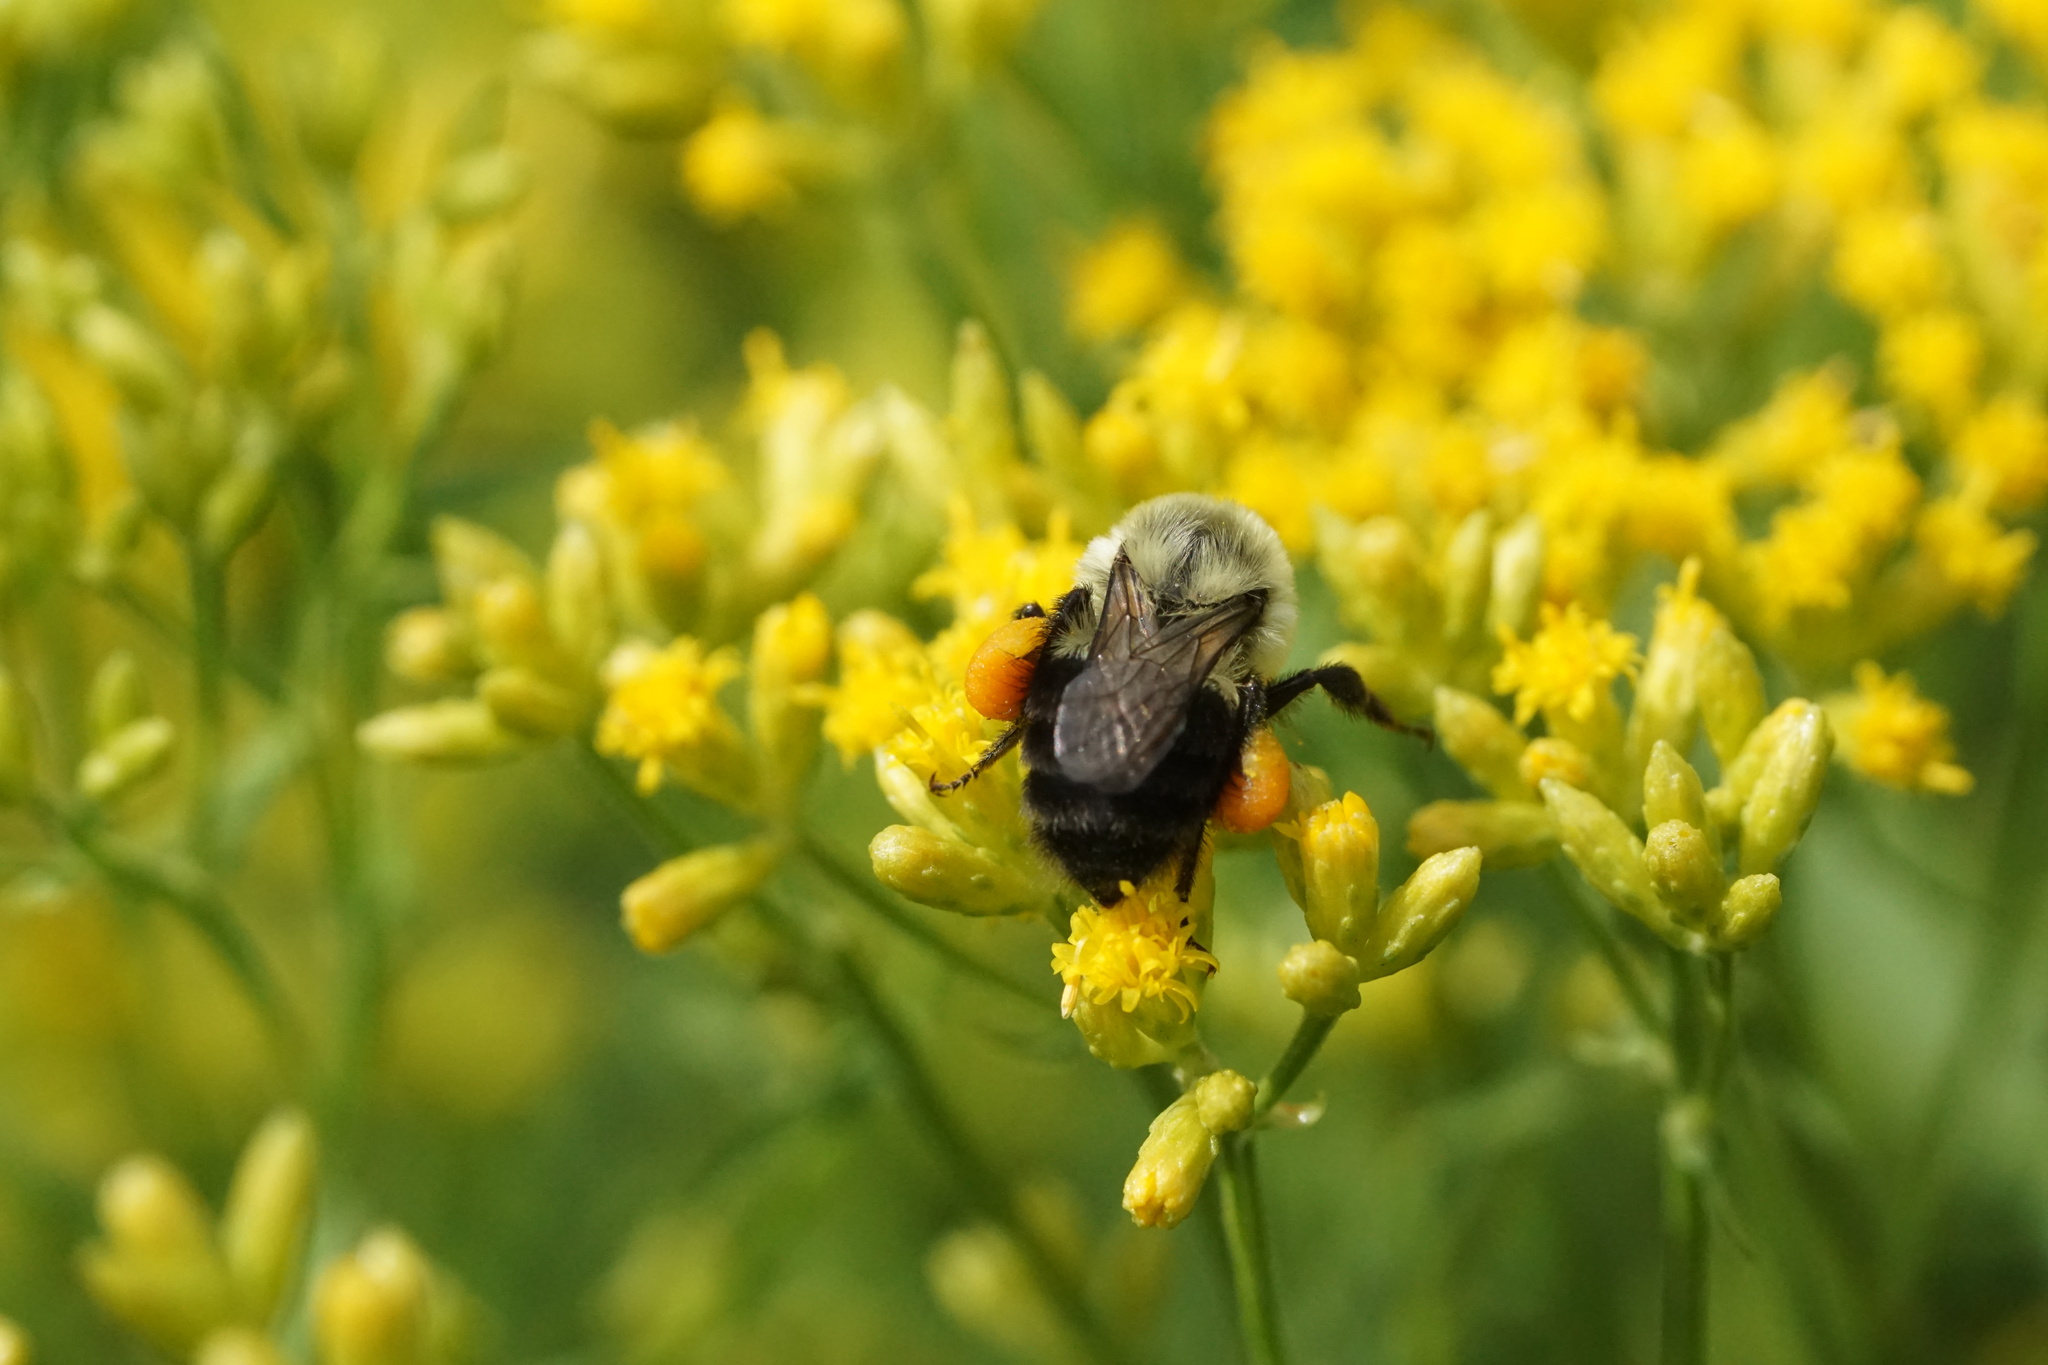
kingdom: Animalia
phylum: Arthropoda
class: Insecta
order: Hymenoptera
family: Apidae
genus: Bombus
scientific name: Bombus impatiens
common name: Common eastern bumble bee
